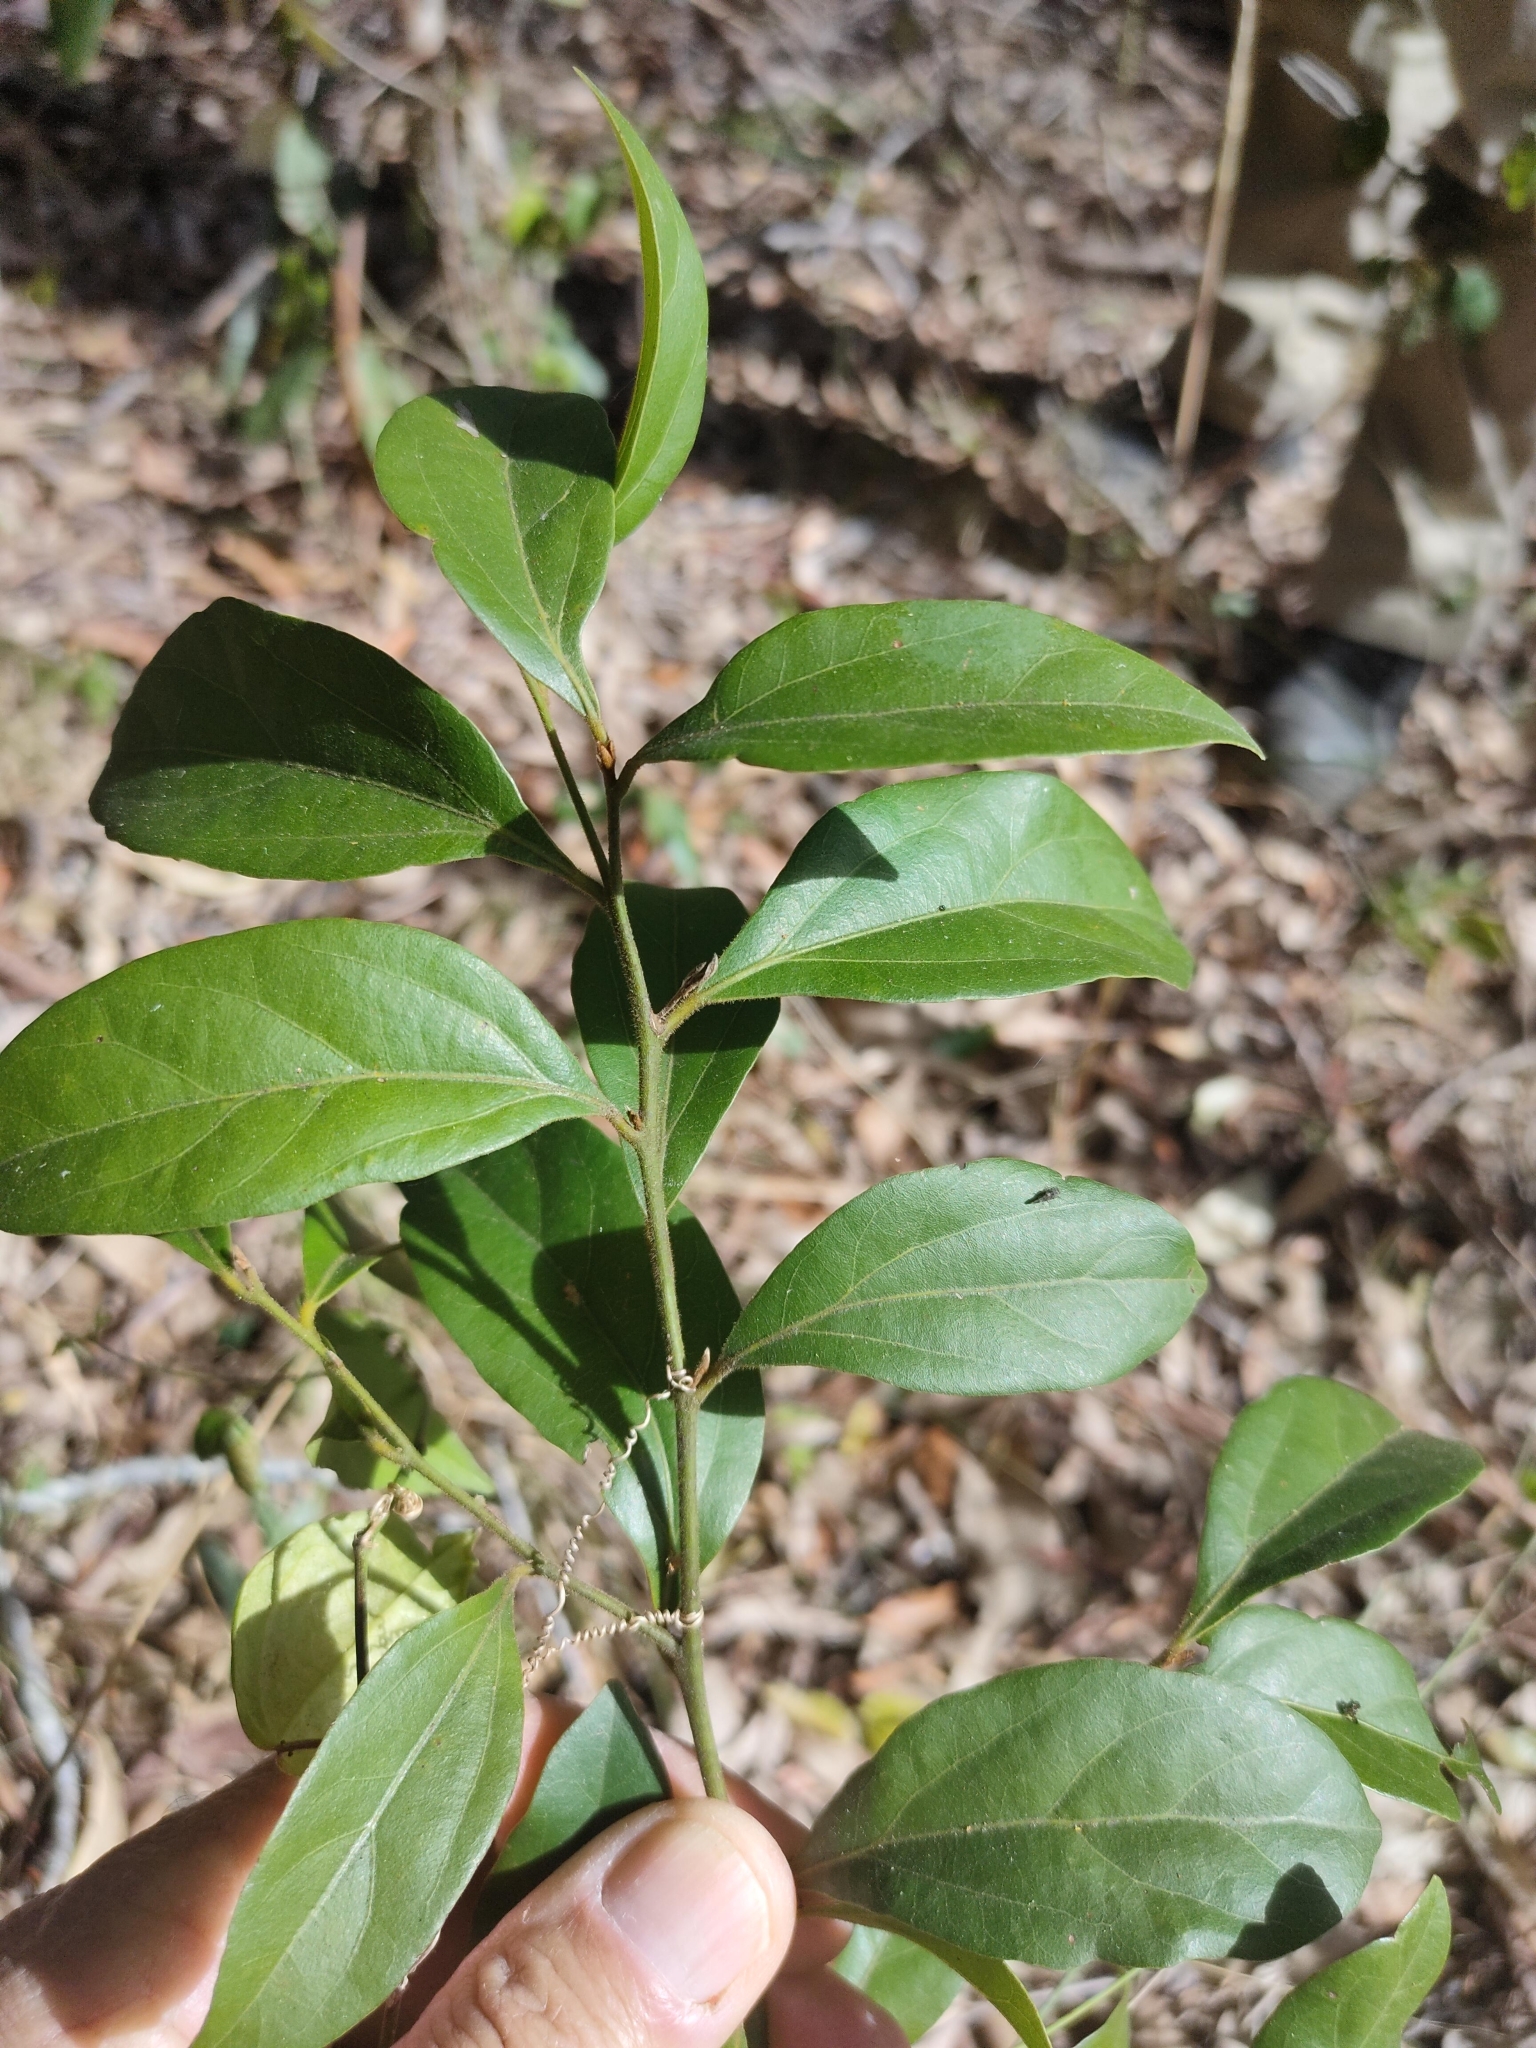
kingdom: Plantae
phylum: Tracheophyta
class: Magnoliopsida
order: Laurales
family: Lauraceae
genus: Cryptocarya
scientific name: Cryptocarya triplinervis
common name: Three-vein cryptocarya
